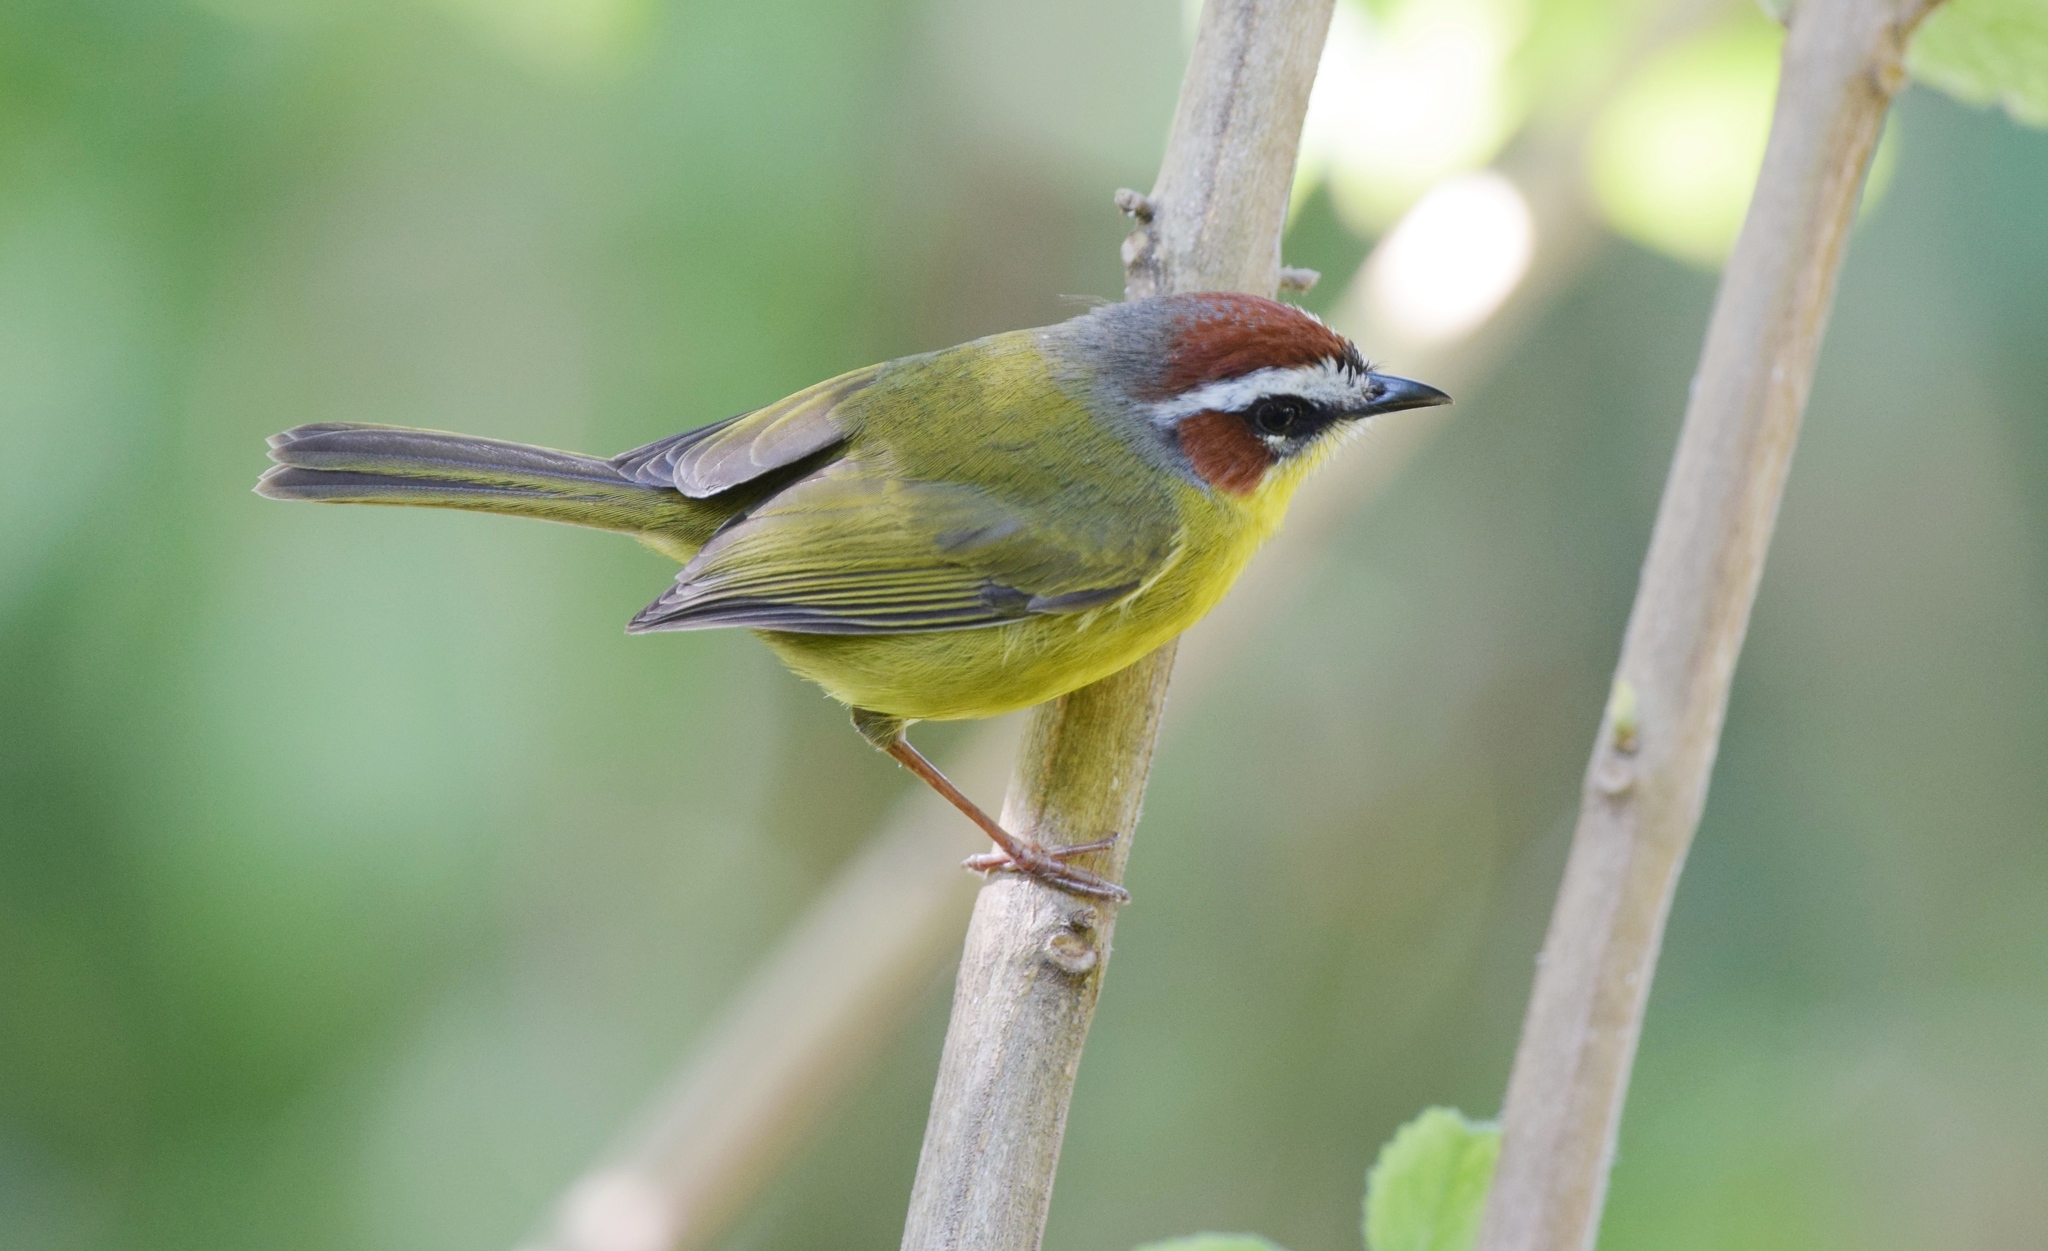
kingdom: Animalia
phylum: Chordata
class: Aves
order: Passeriformes
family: Parulidae
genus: Basileuterus
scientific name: Basileuterus rufifrons
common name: Rufous-capped warbler
